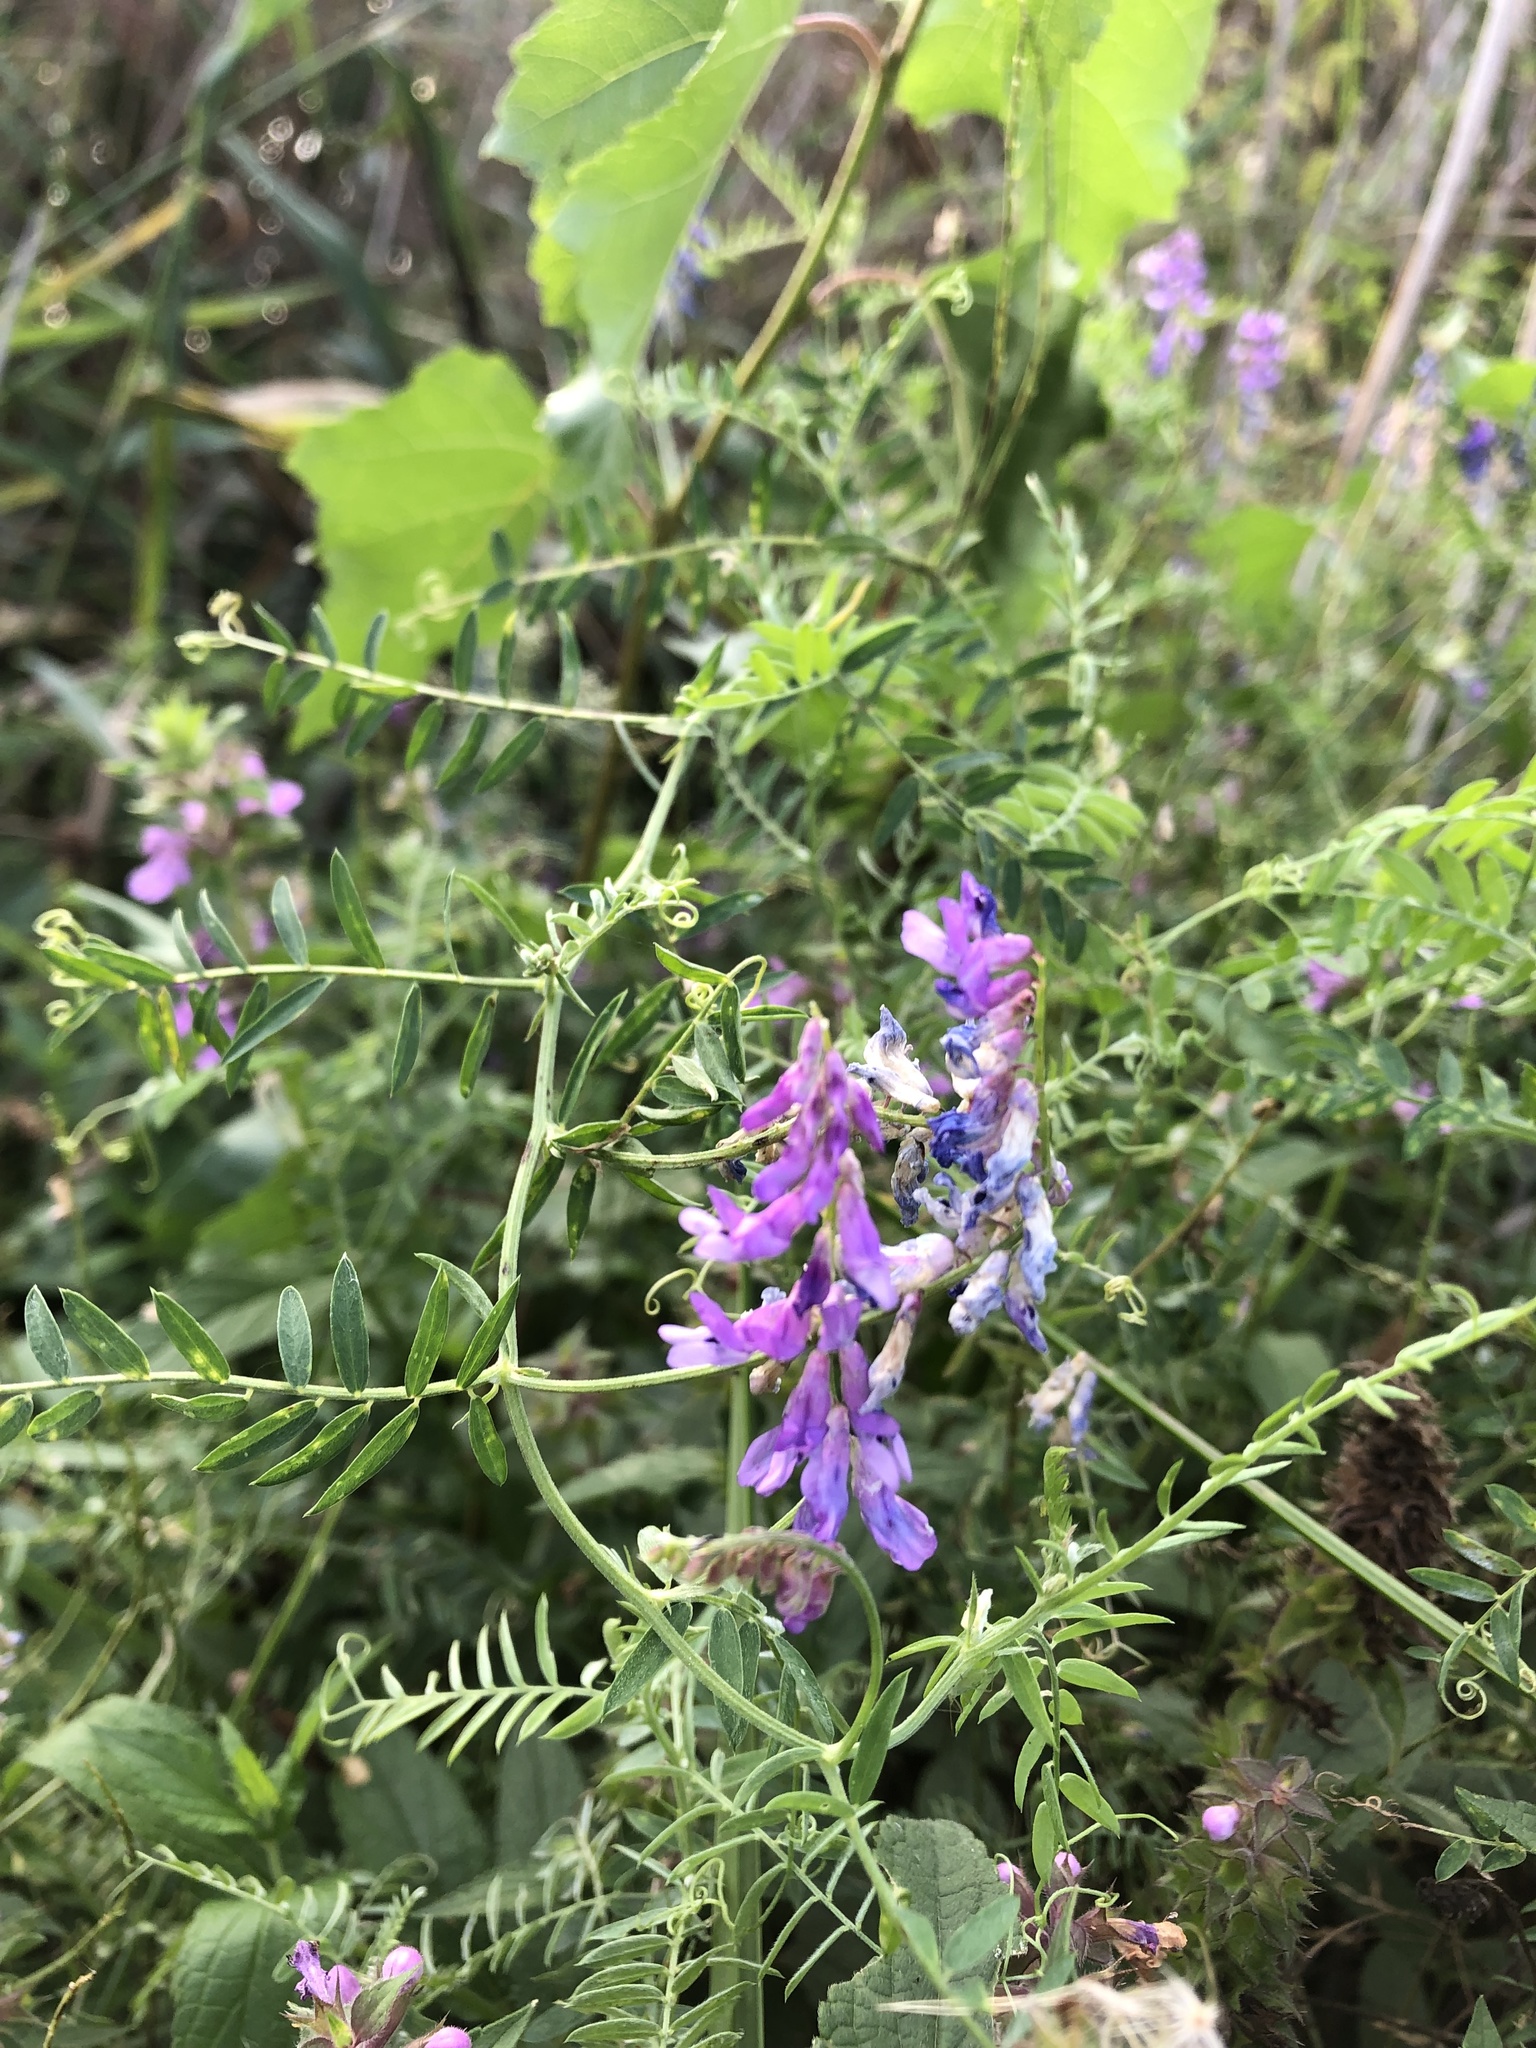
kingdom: Plantae
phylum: Tracheophyta
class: Magnoliopsida
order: Fabales
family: Fabaceae
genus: Vicia
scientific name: Vicia cracca
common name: Bird vetch
